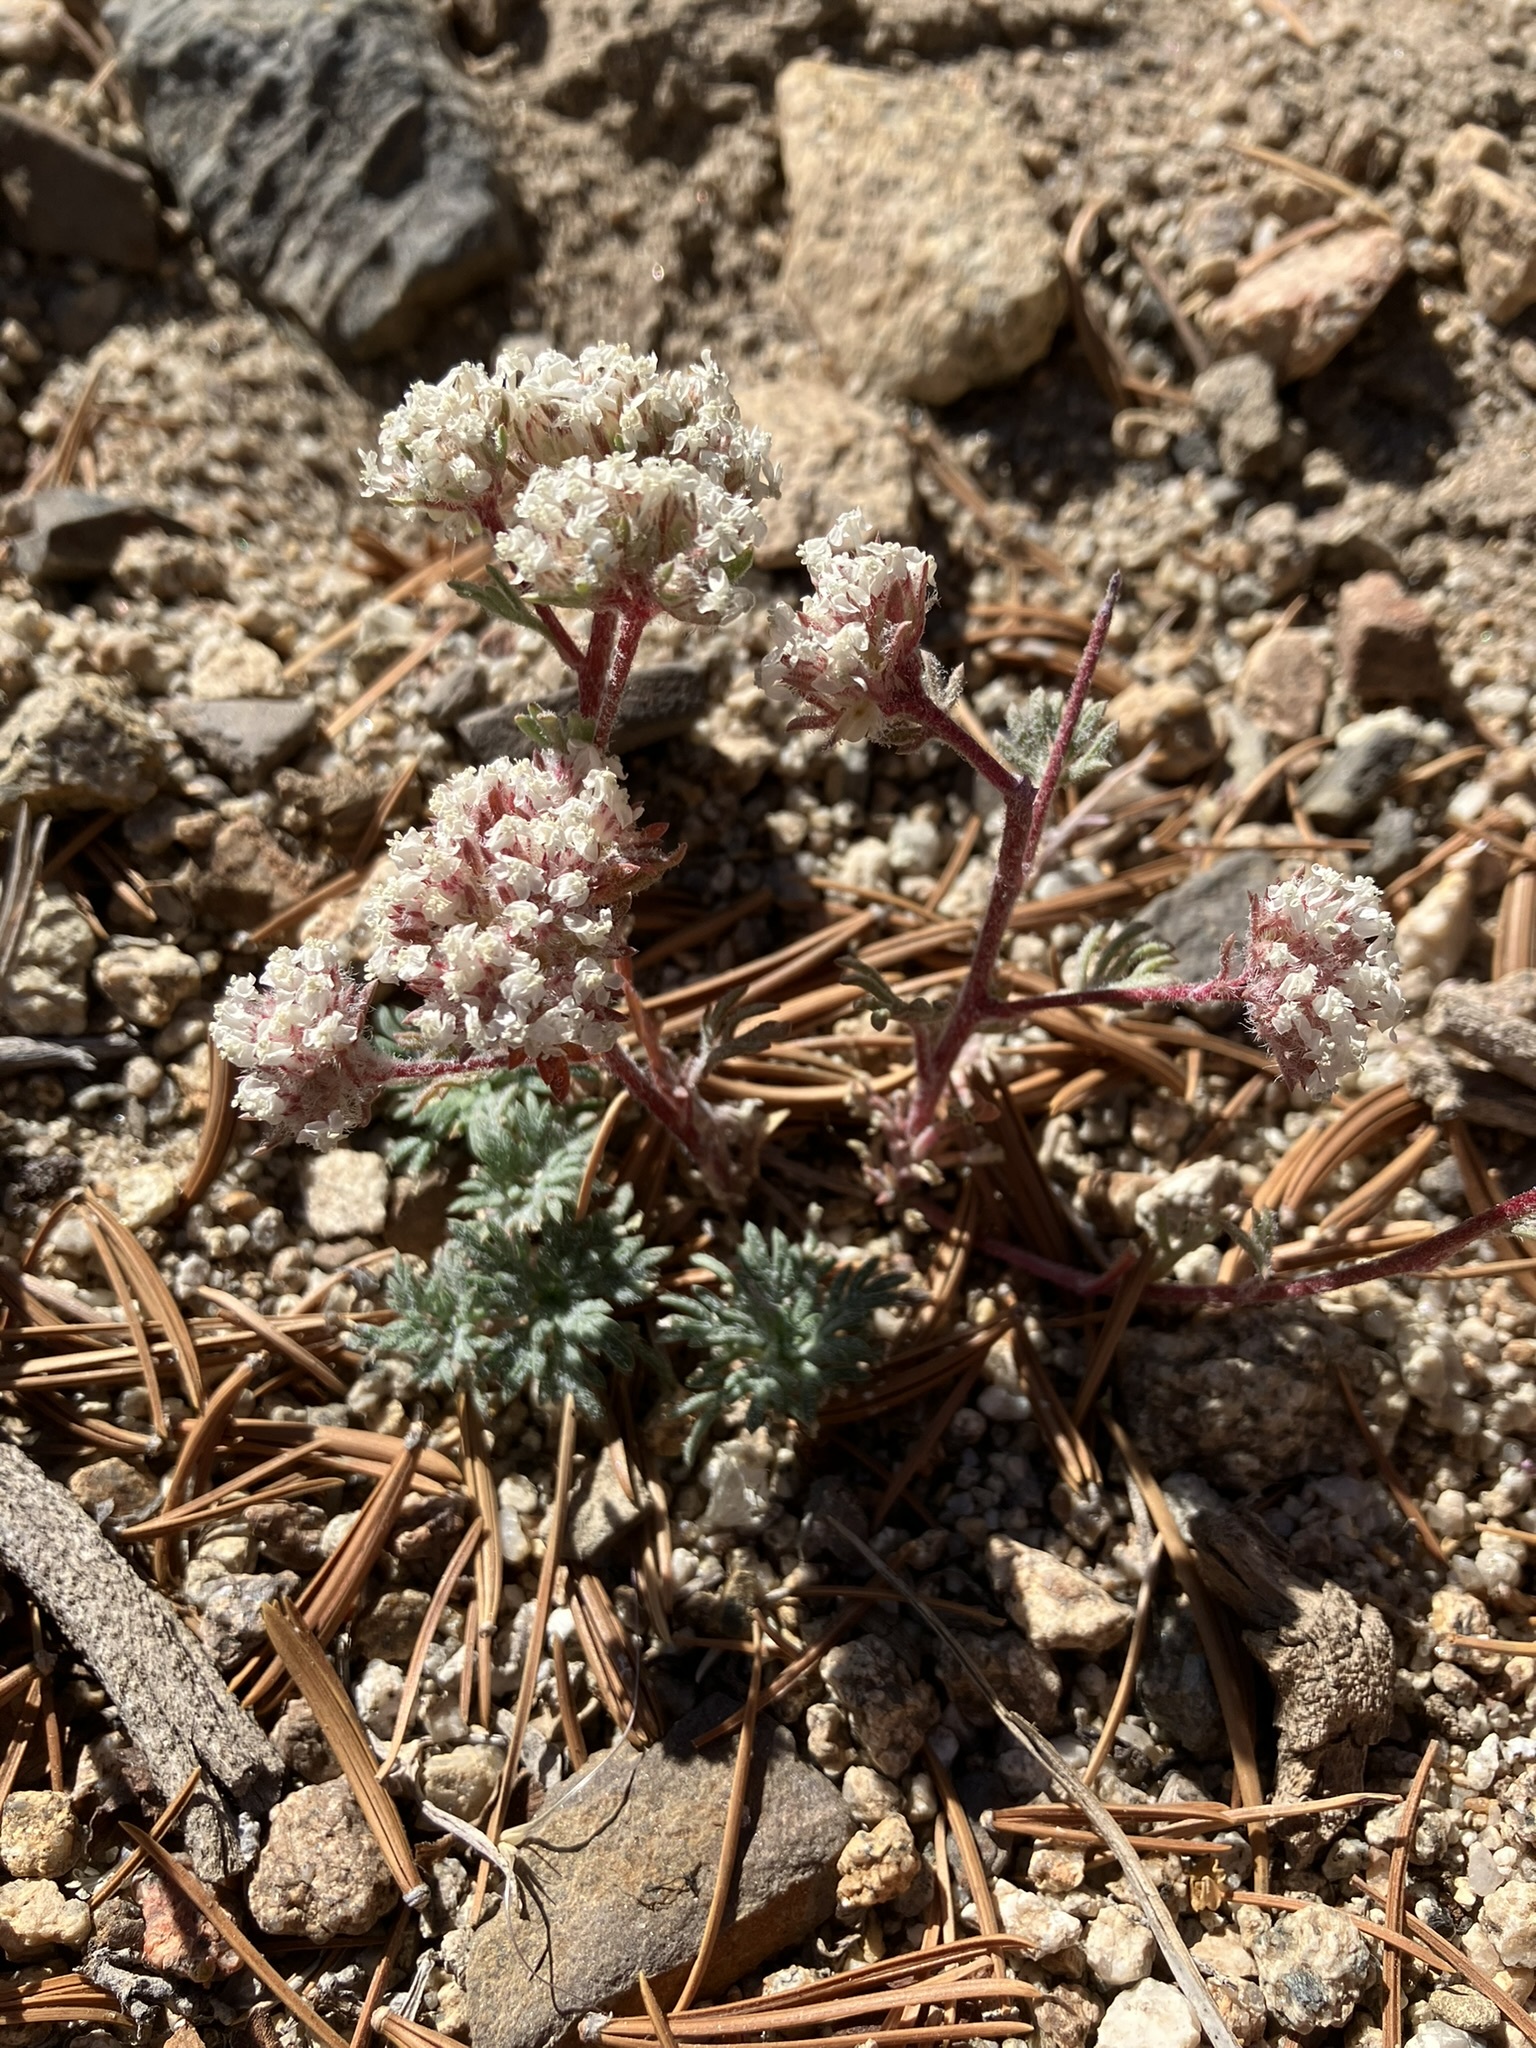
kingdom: Plantae
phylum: Tracheophyta
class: Magnoliopsida
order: Ericales
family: Polemoniaceae
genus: Ipomopsis
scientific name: Ipomopsis congesta
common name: Ball-head gilia
